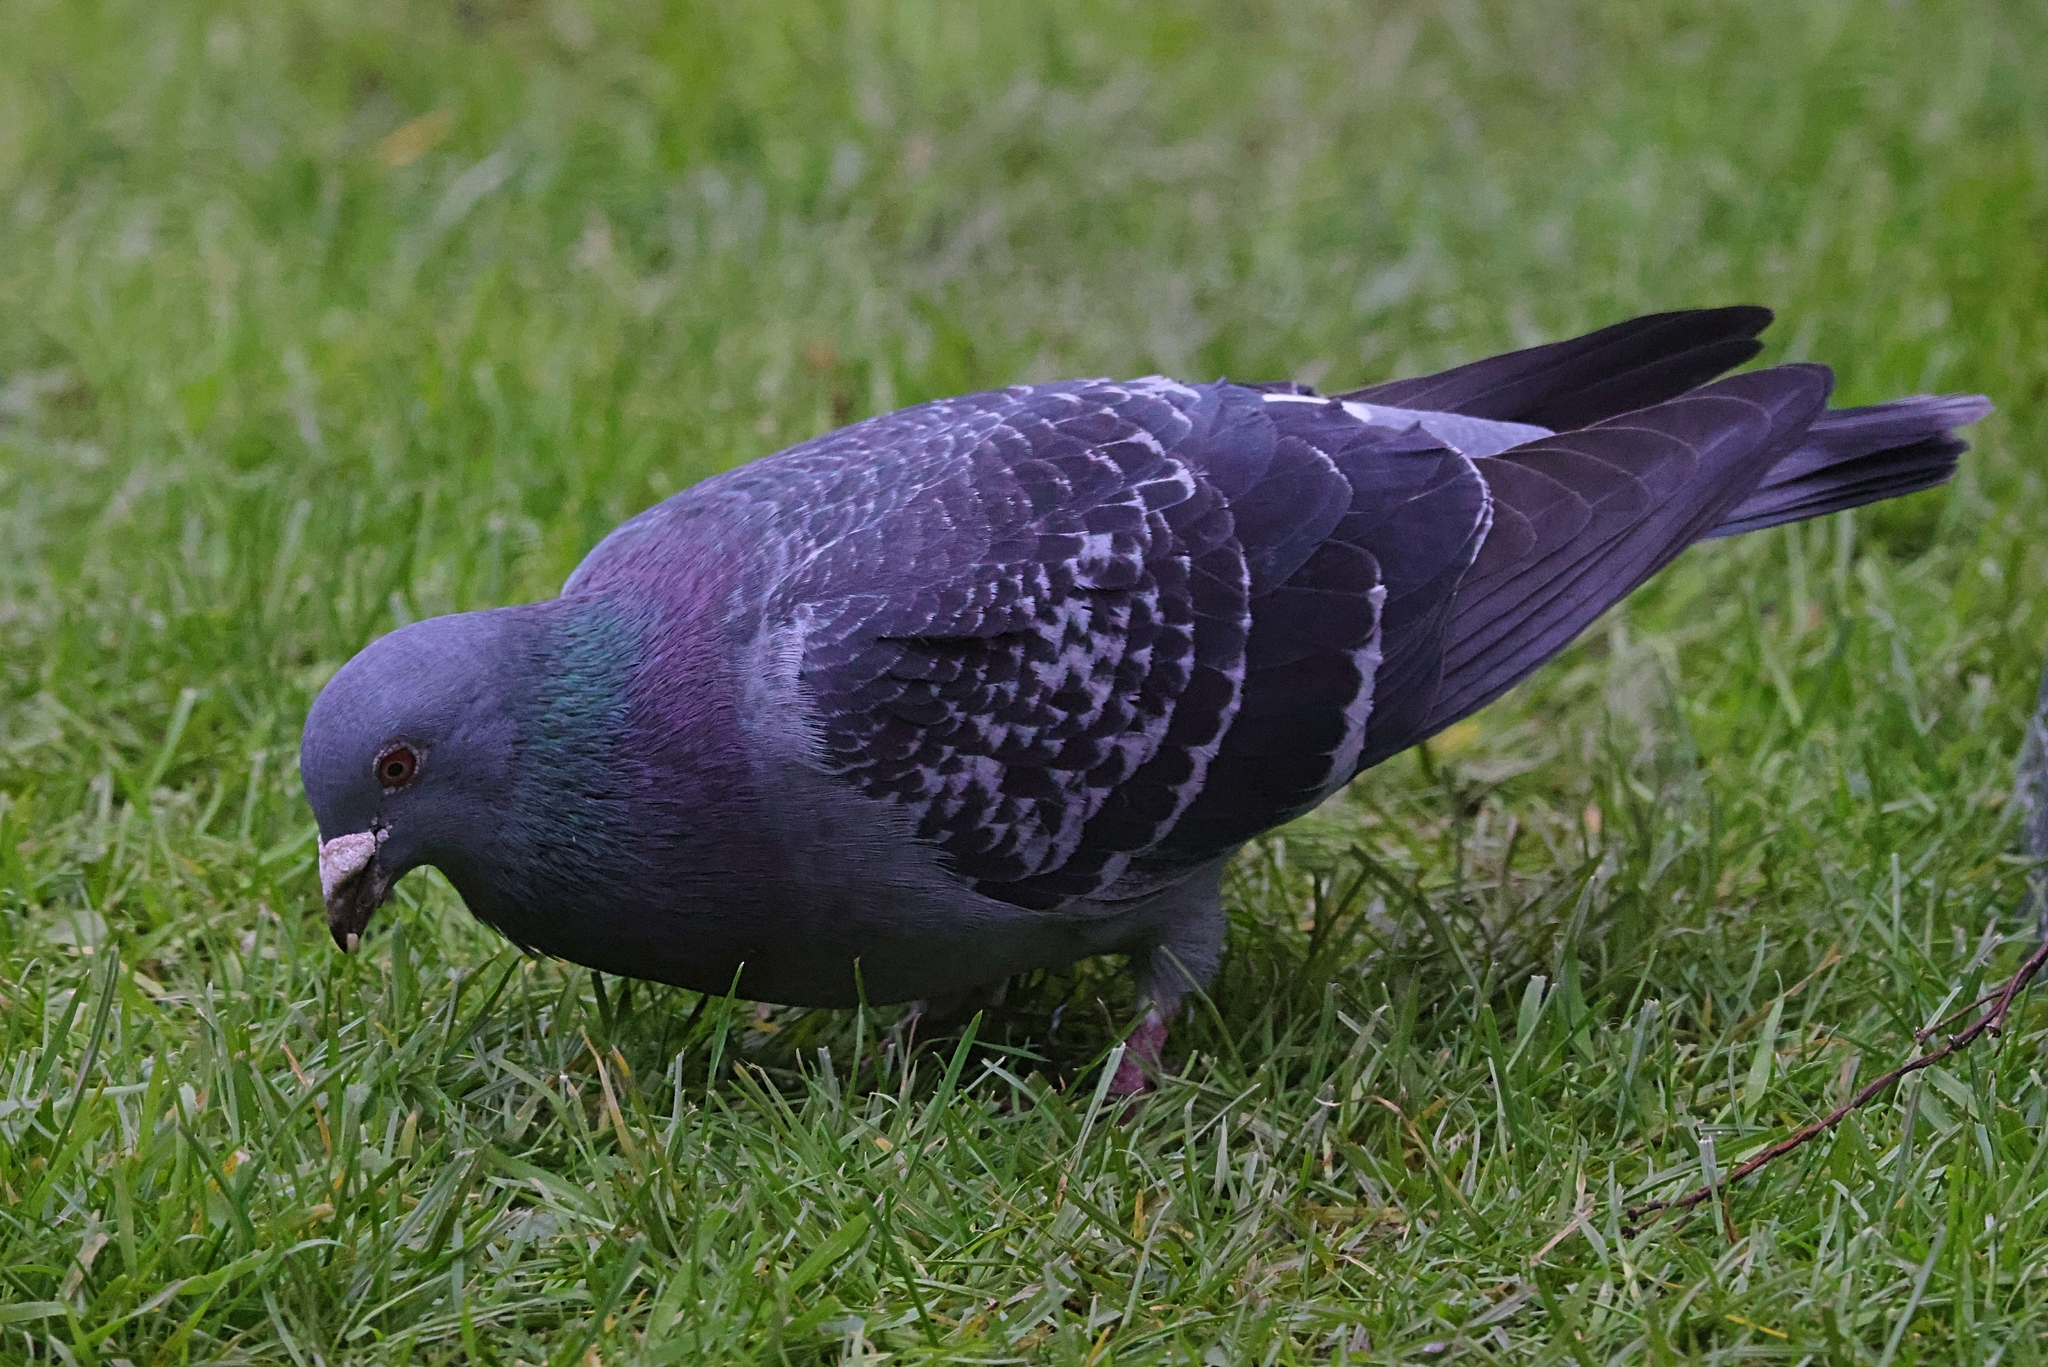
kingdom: Animalia
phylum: Chordata
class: Aves
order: Columbiformes
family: Columbidae
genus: Columba
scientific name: Columba livia
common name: Rock pigeon
